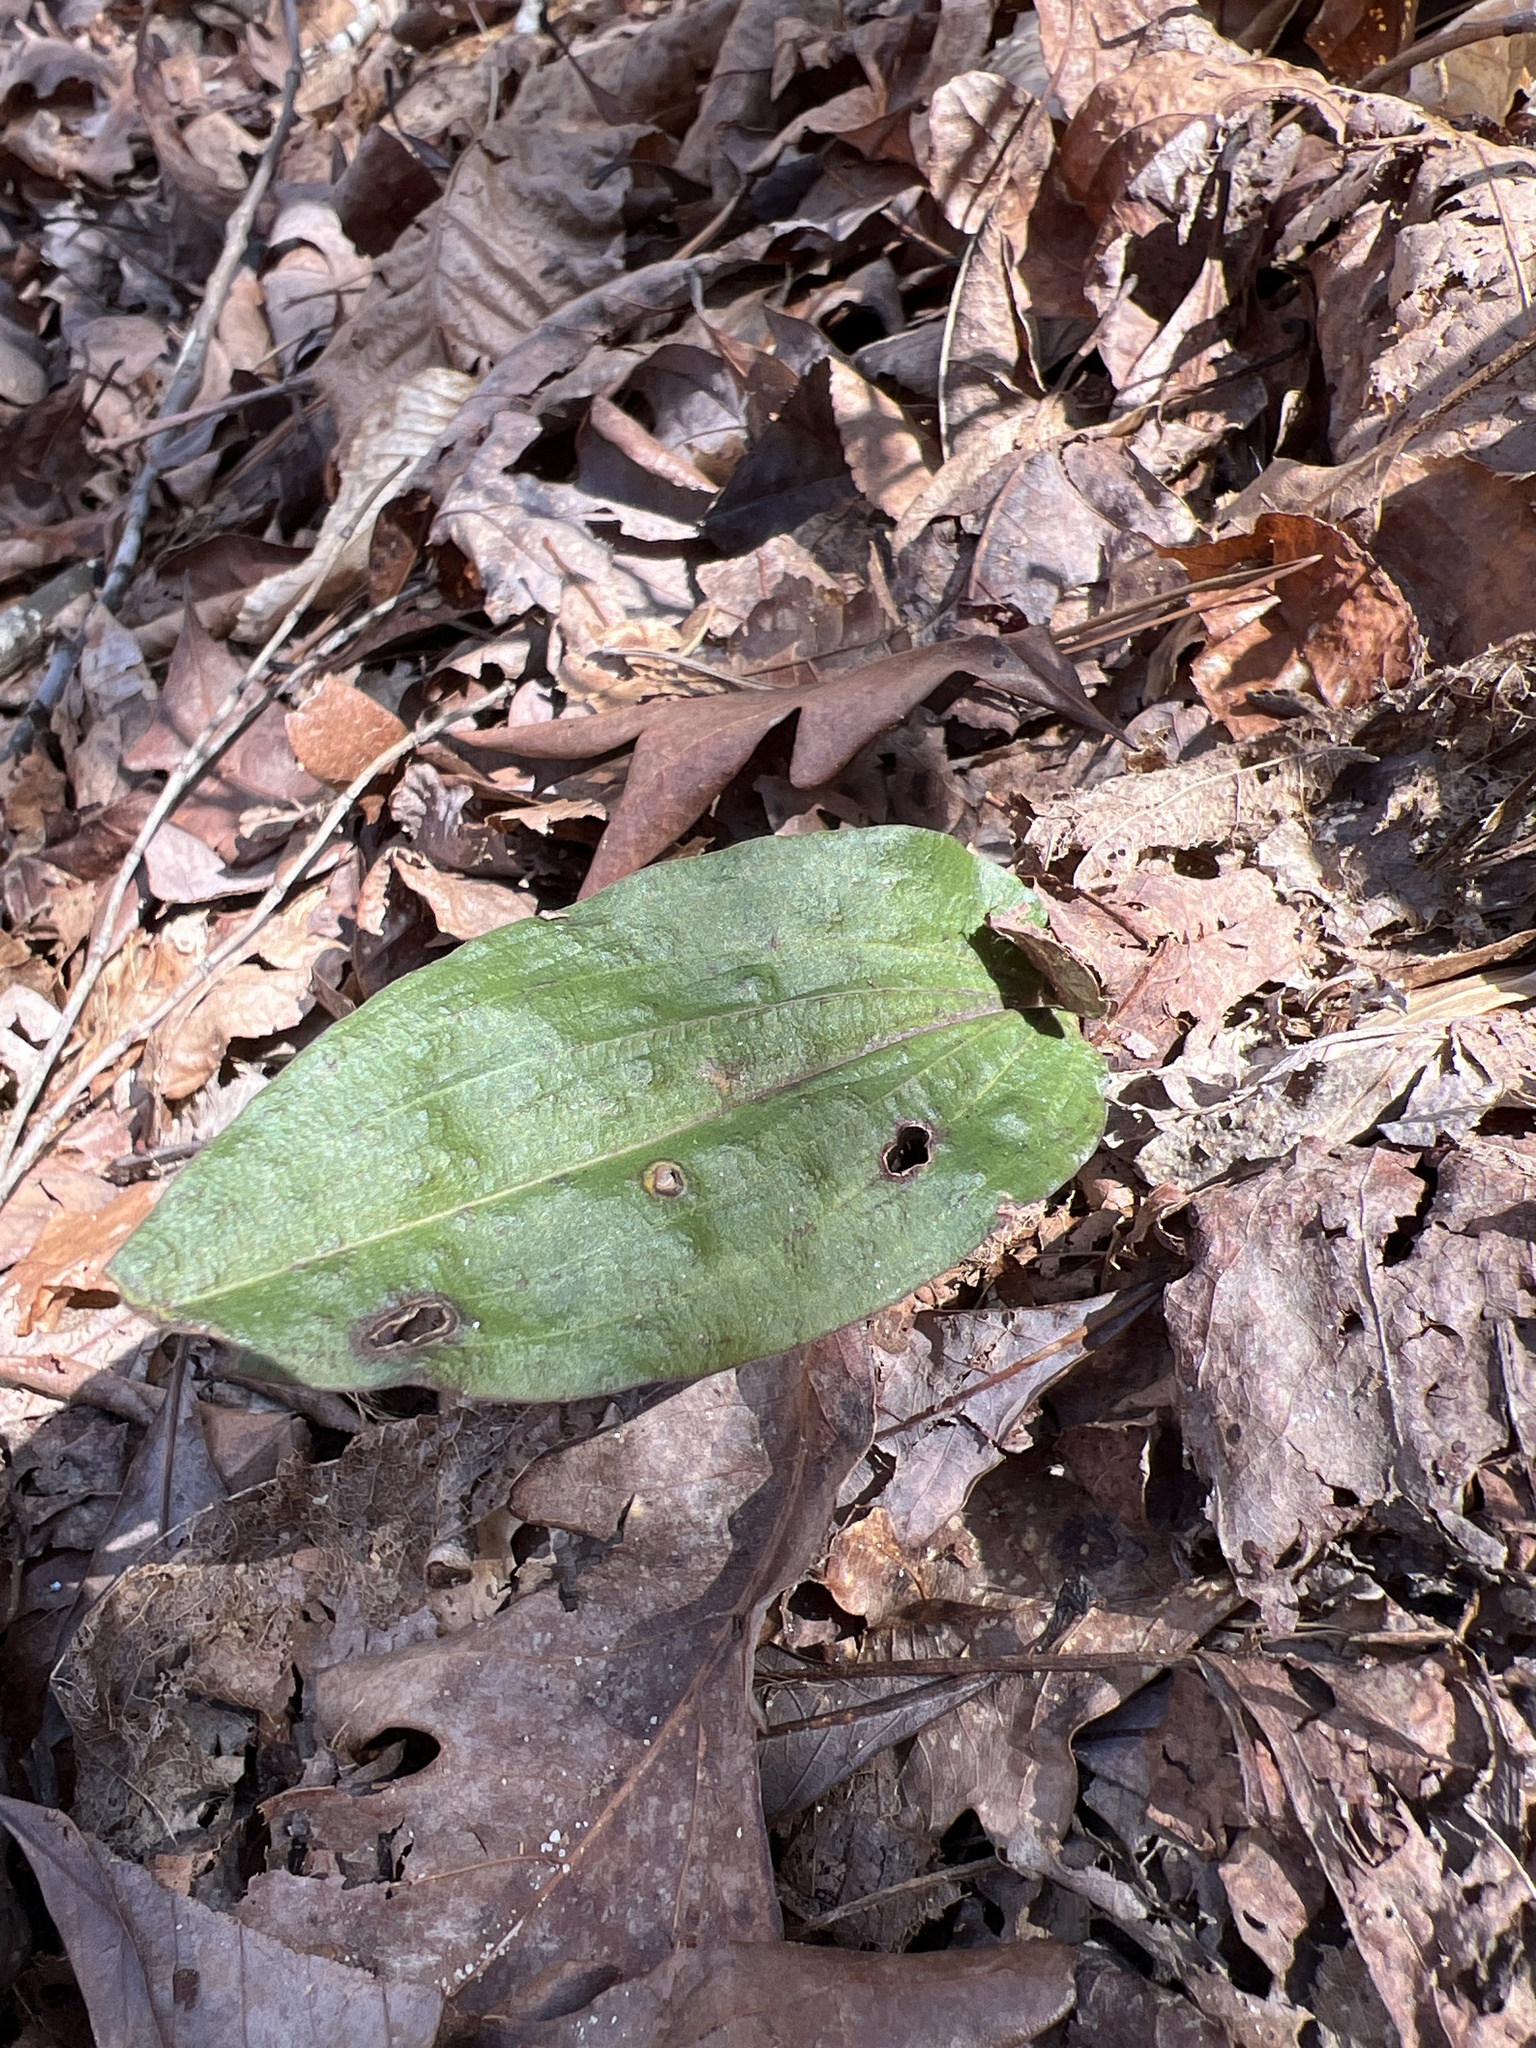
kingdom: Plantae
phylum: Tracheophyta
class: Liliopsida
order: Asparagales
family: Orchidaceae
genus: Tipularia
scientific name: Tipularia discolor
